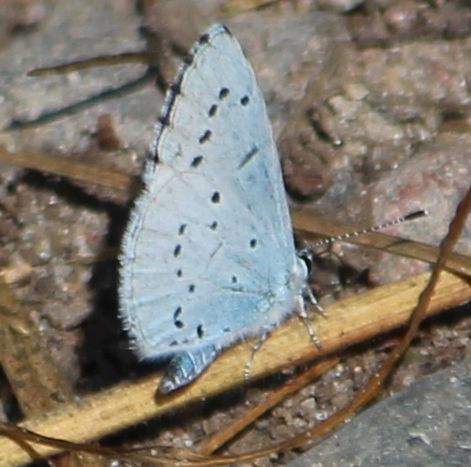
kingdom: Animalia
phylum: Arthropoda
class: Insecta
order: Lepidoptera
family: Lycaenidae
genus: Celastrina
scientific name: Celastrina argiolus
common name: Holly blue
